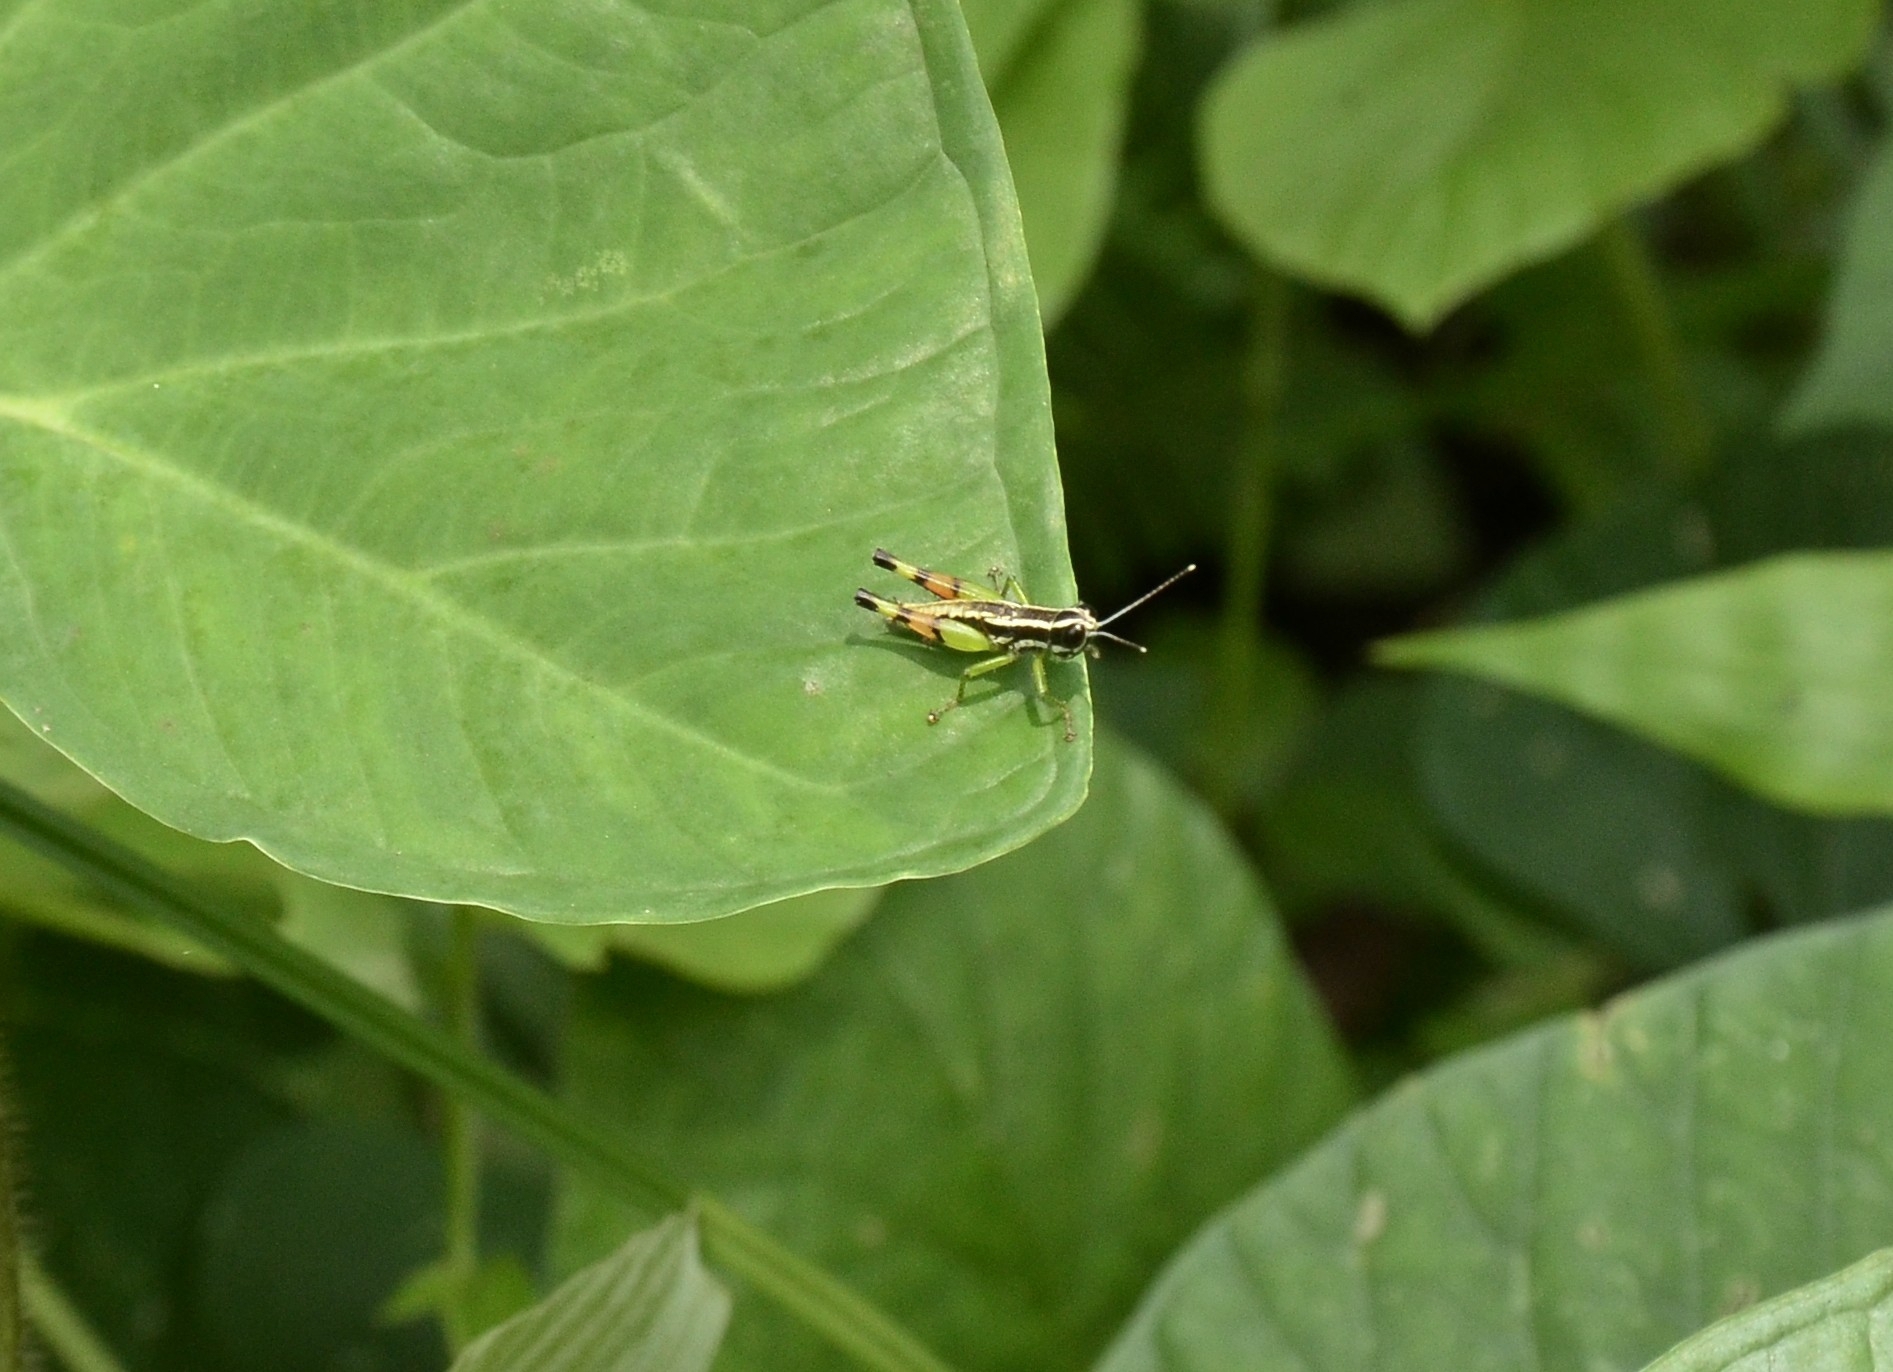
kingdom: Animalia
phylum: Arthropoda
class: Insecta
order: Orthoptera
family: Acrididae
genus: Chitaura
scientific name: Chitaura indica
